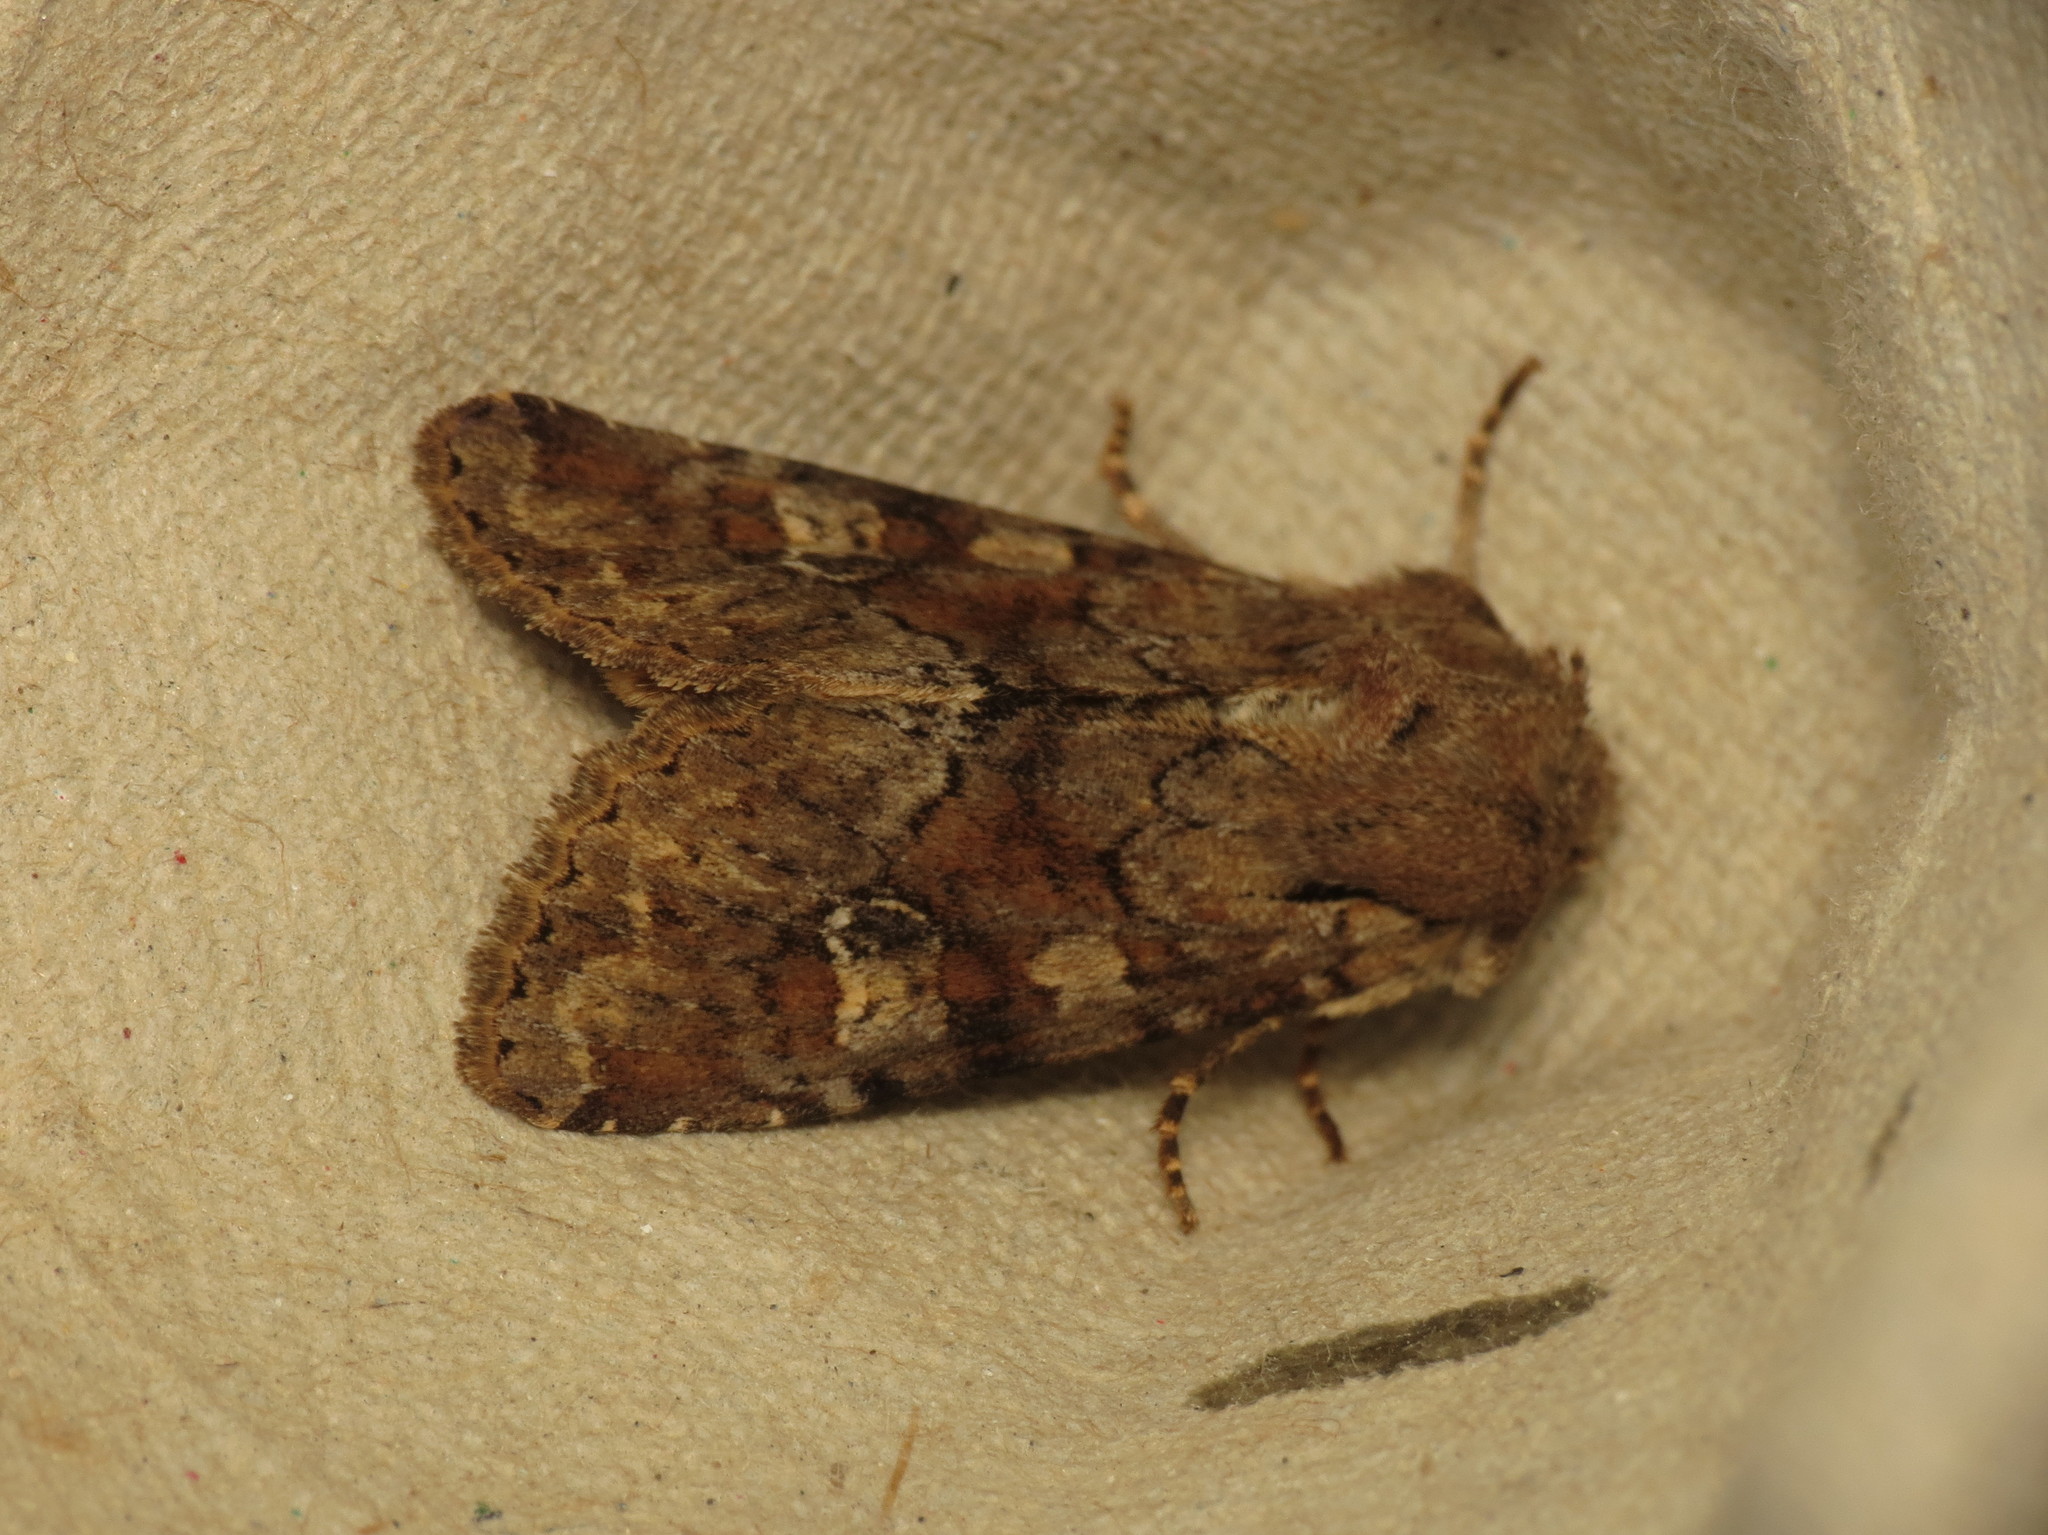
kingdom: Animalia
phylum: Arthropoda
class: Insecta
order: Lepidoptera
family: Noctuidae
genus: Apamea
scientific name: Apamea sordens
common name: Rustic shoulder-knot
